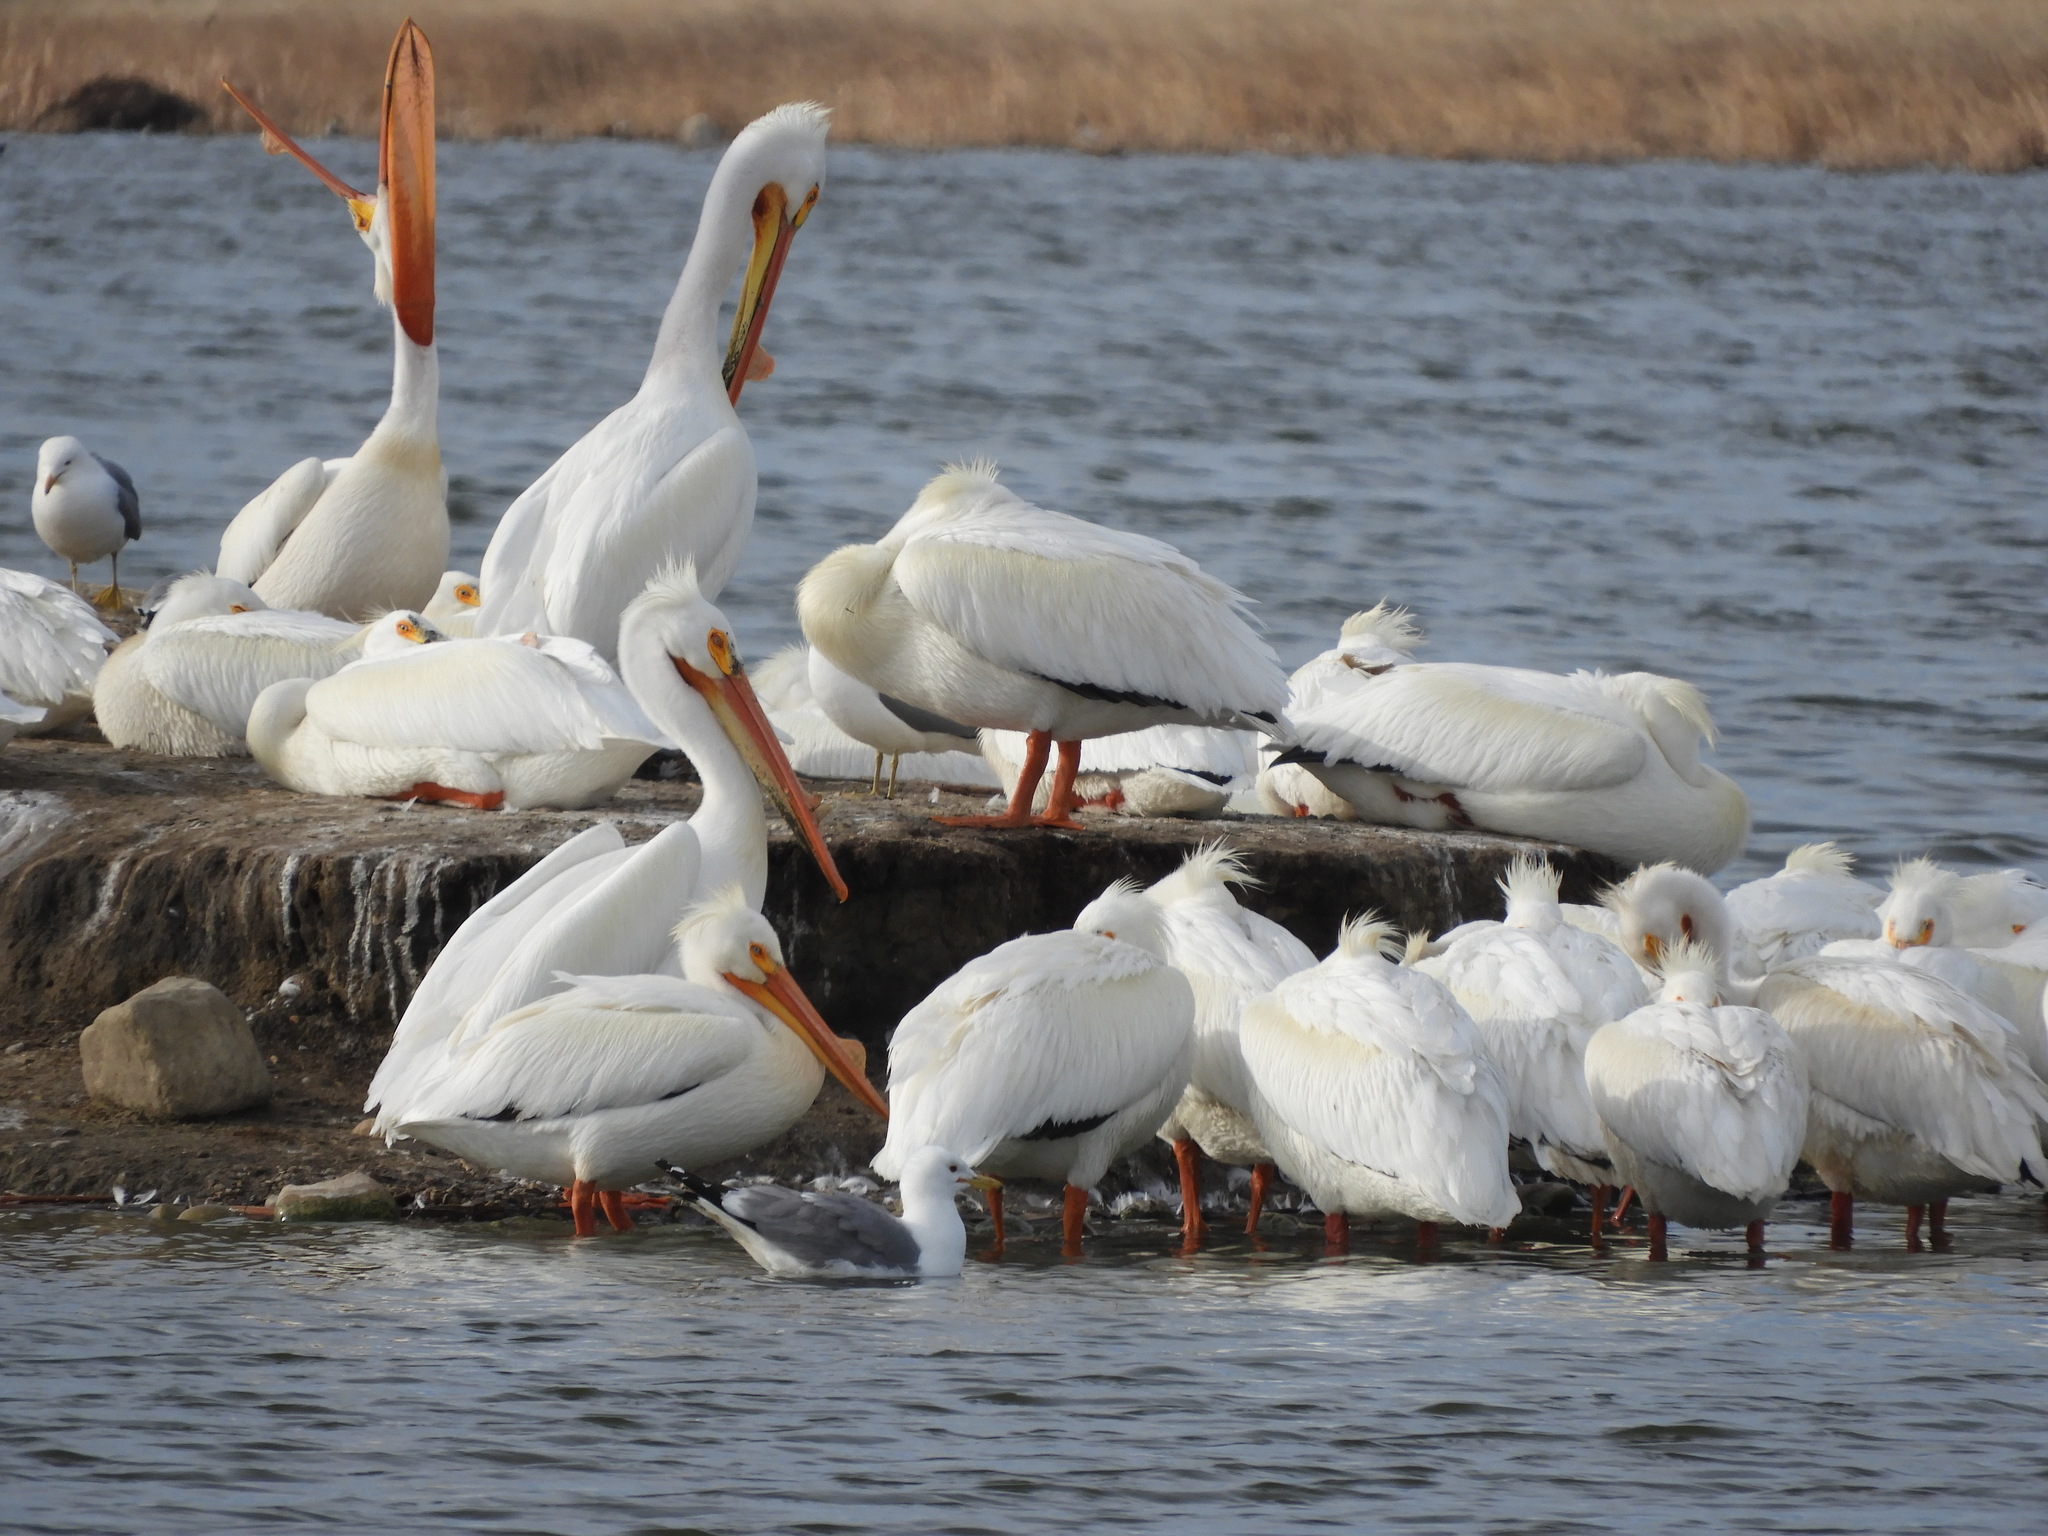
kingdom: Animalia
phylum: Chordata
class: Aves
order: Pelecaniformes
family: Pelecanidae
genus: Pelecanus
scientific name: Pelecanus erythrorhynchos
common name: American white pelican
